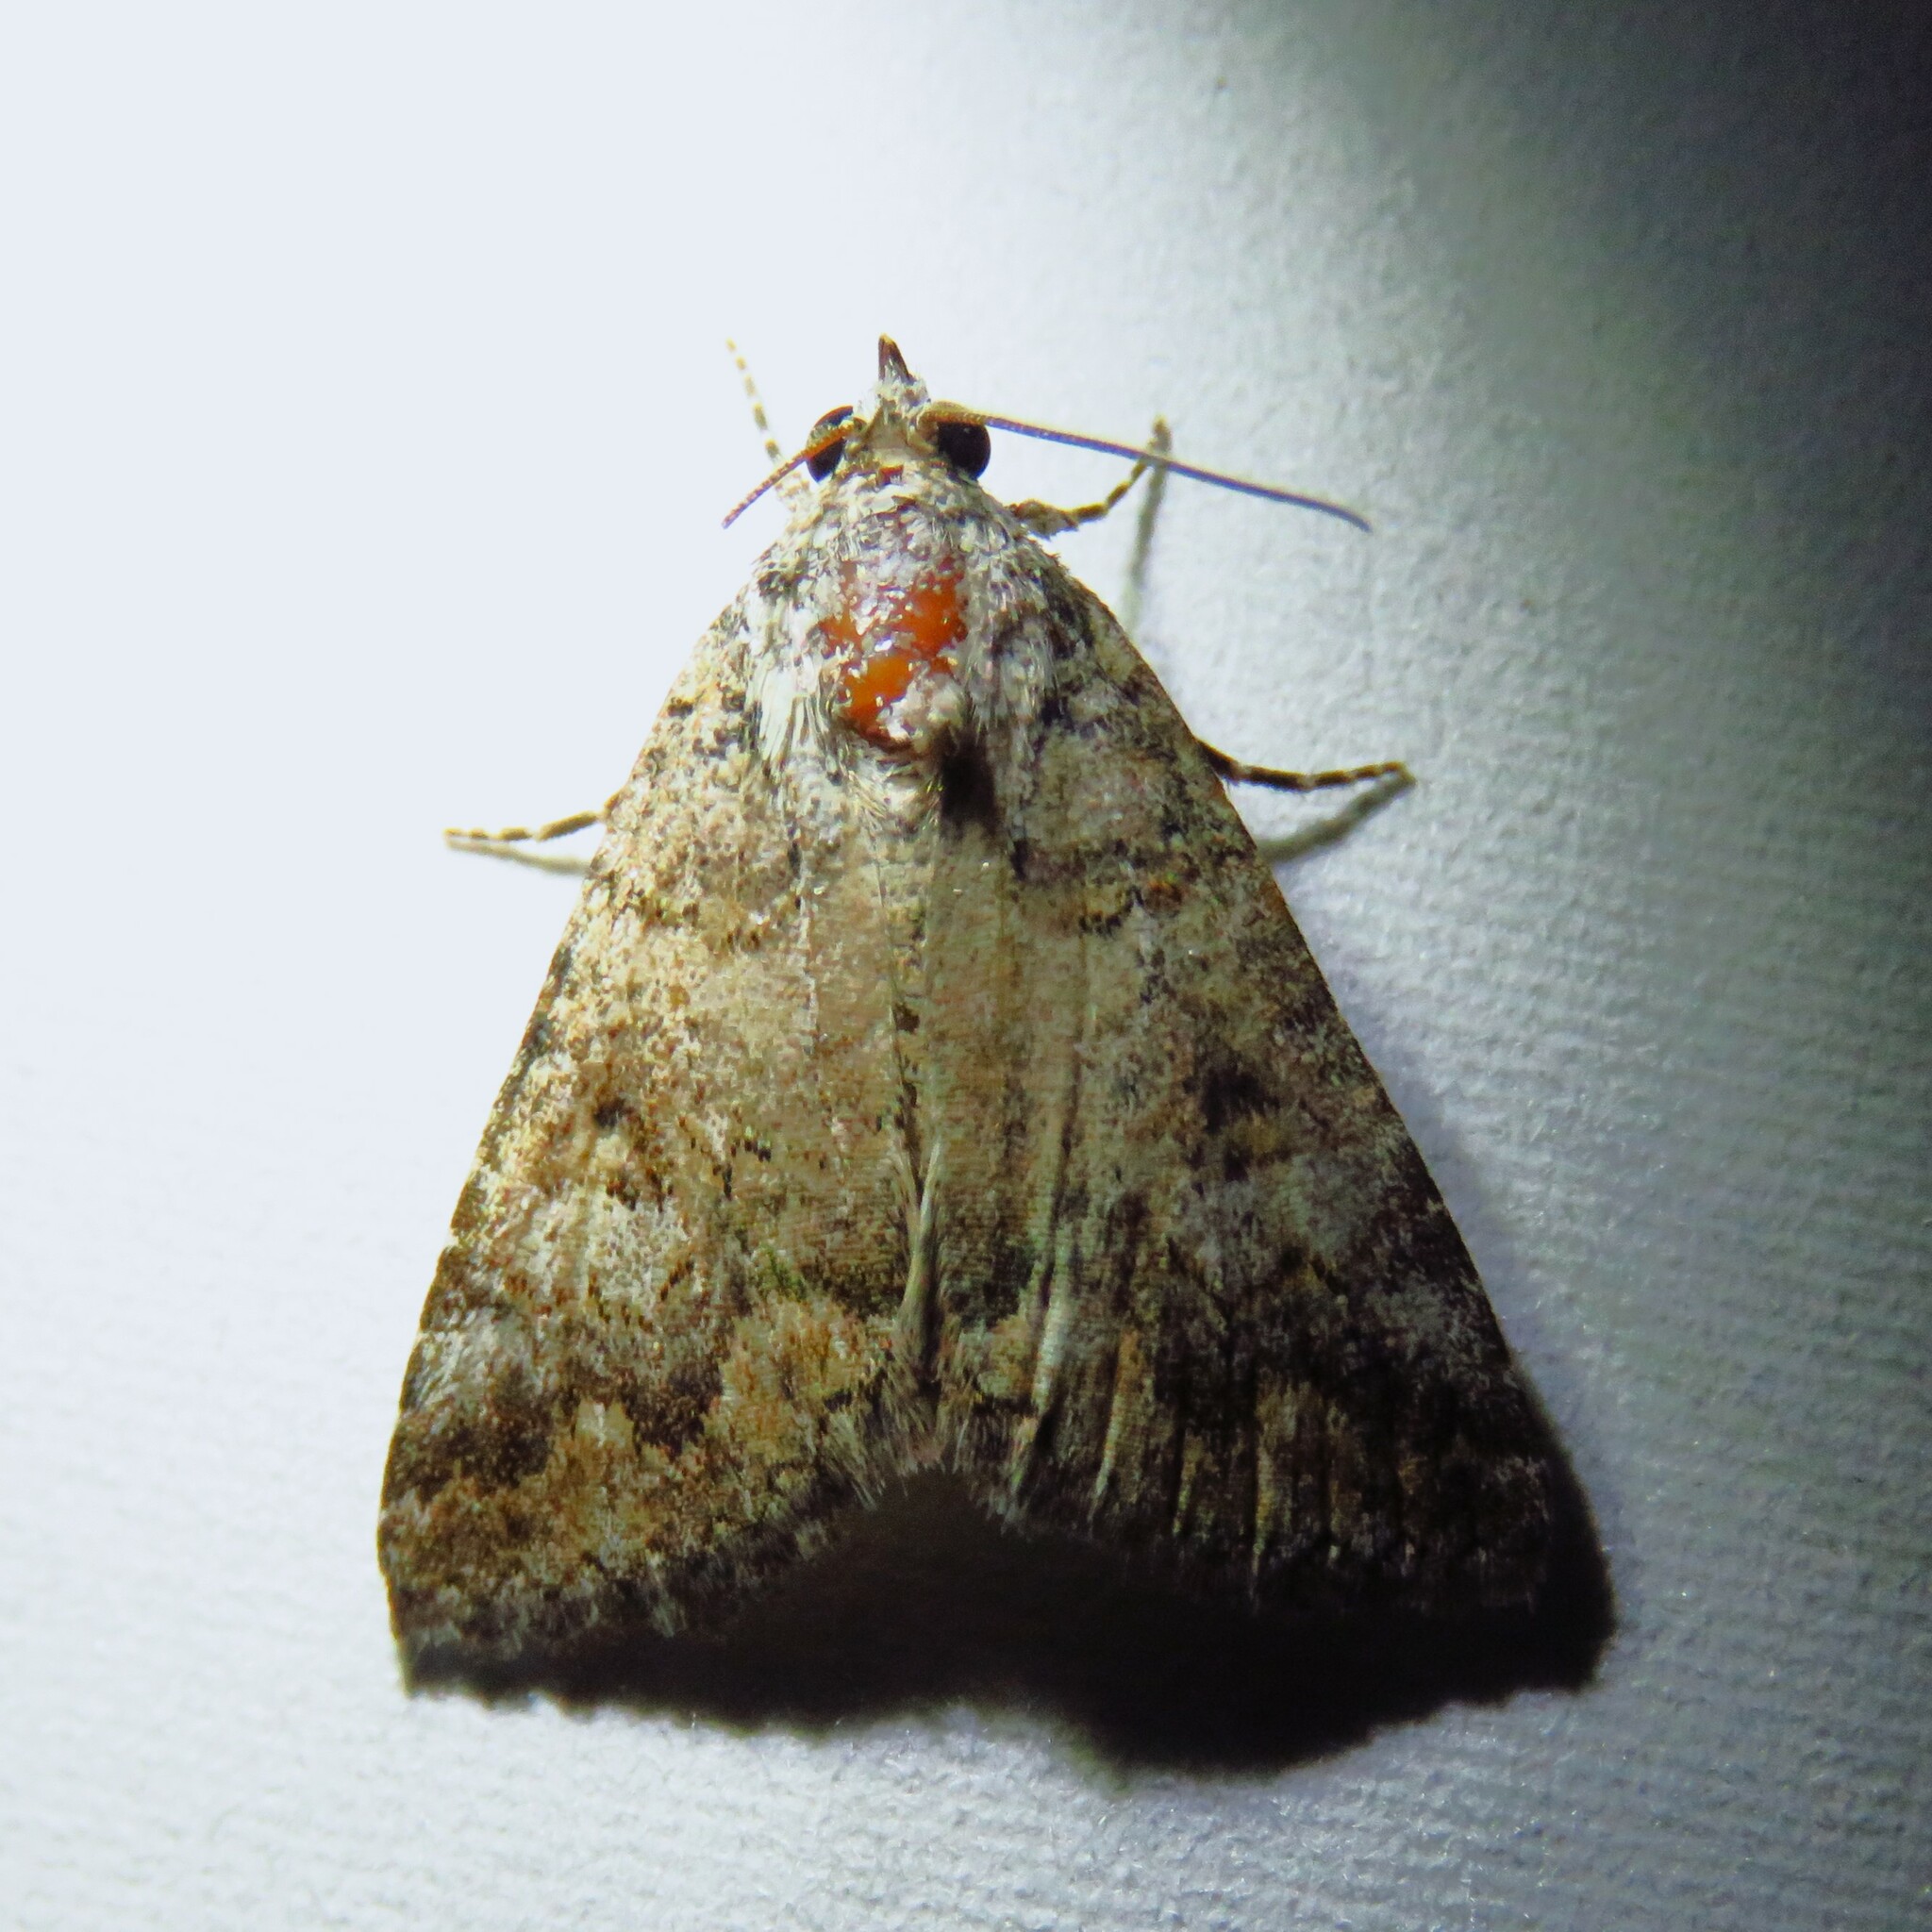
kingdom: Animalia
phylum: Arthropoda
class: Insecta
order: Lepidoptera
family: Erebidae
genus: Eubolina
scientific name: Eubolina impartialis
